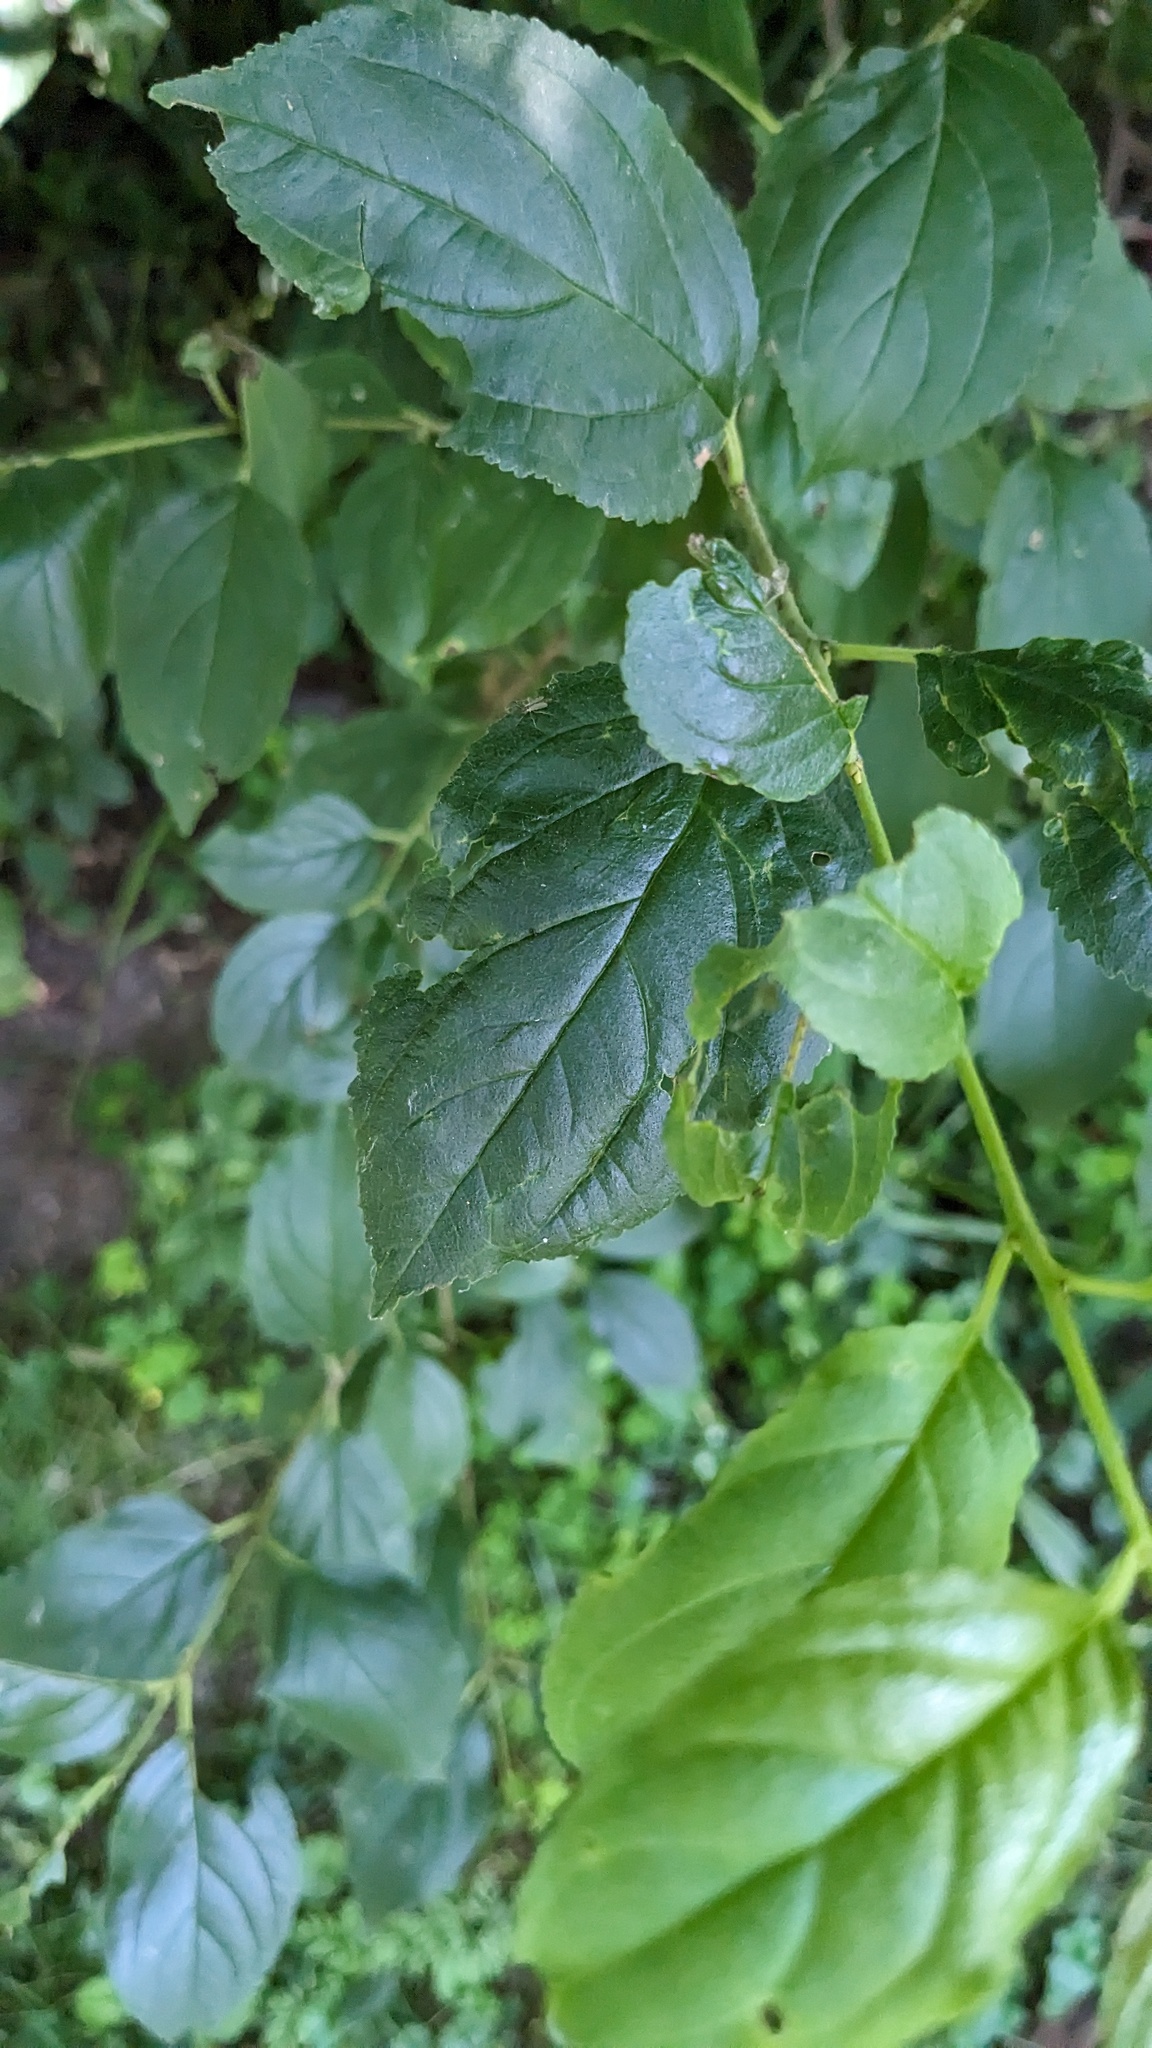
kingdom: Plantae
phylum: Tracheophyta
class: Magnoliopsida
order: Rosales
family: Rhamnaceae
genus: Rhamnus
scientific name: Rhamnus cathartica
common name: Common buckthorn
